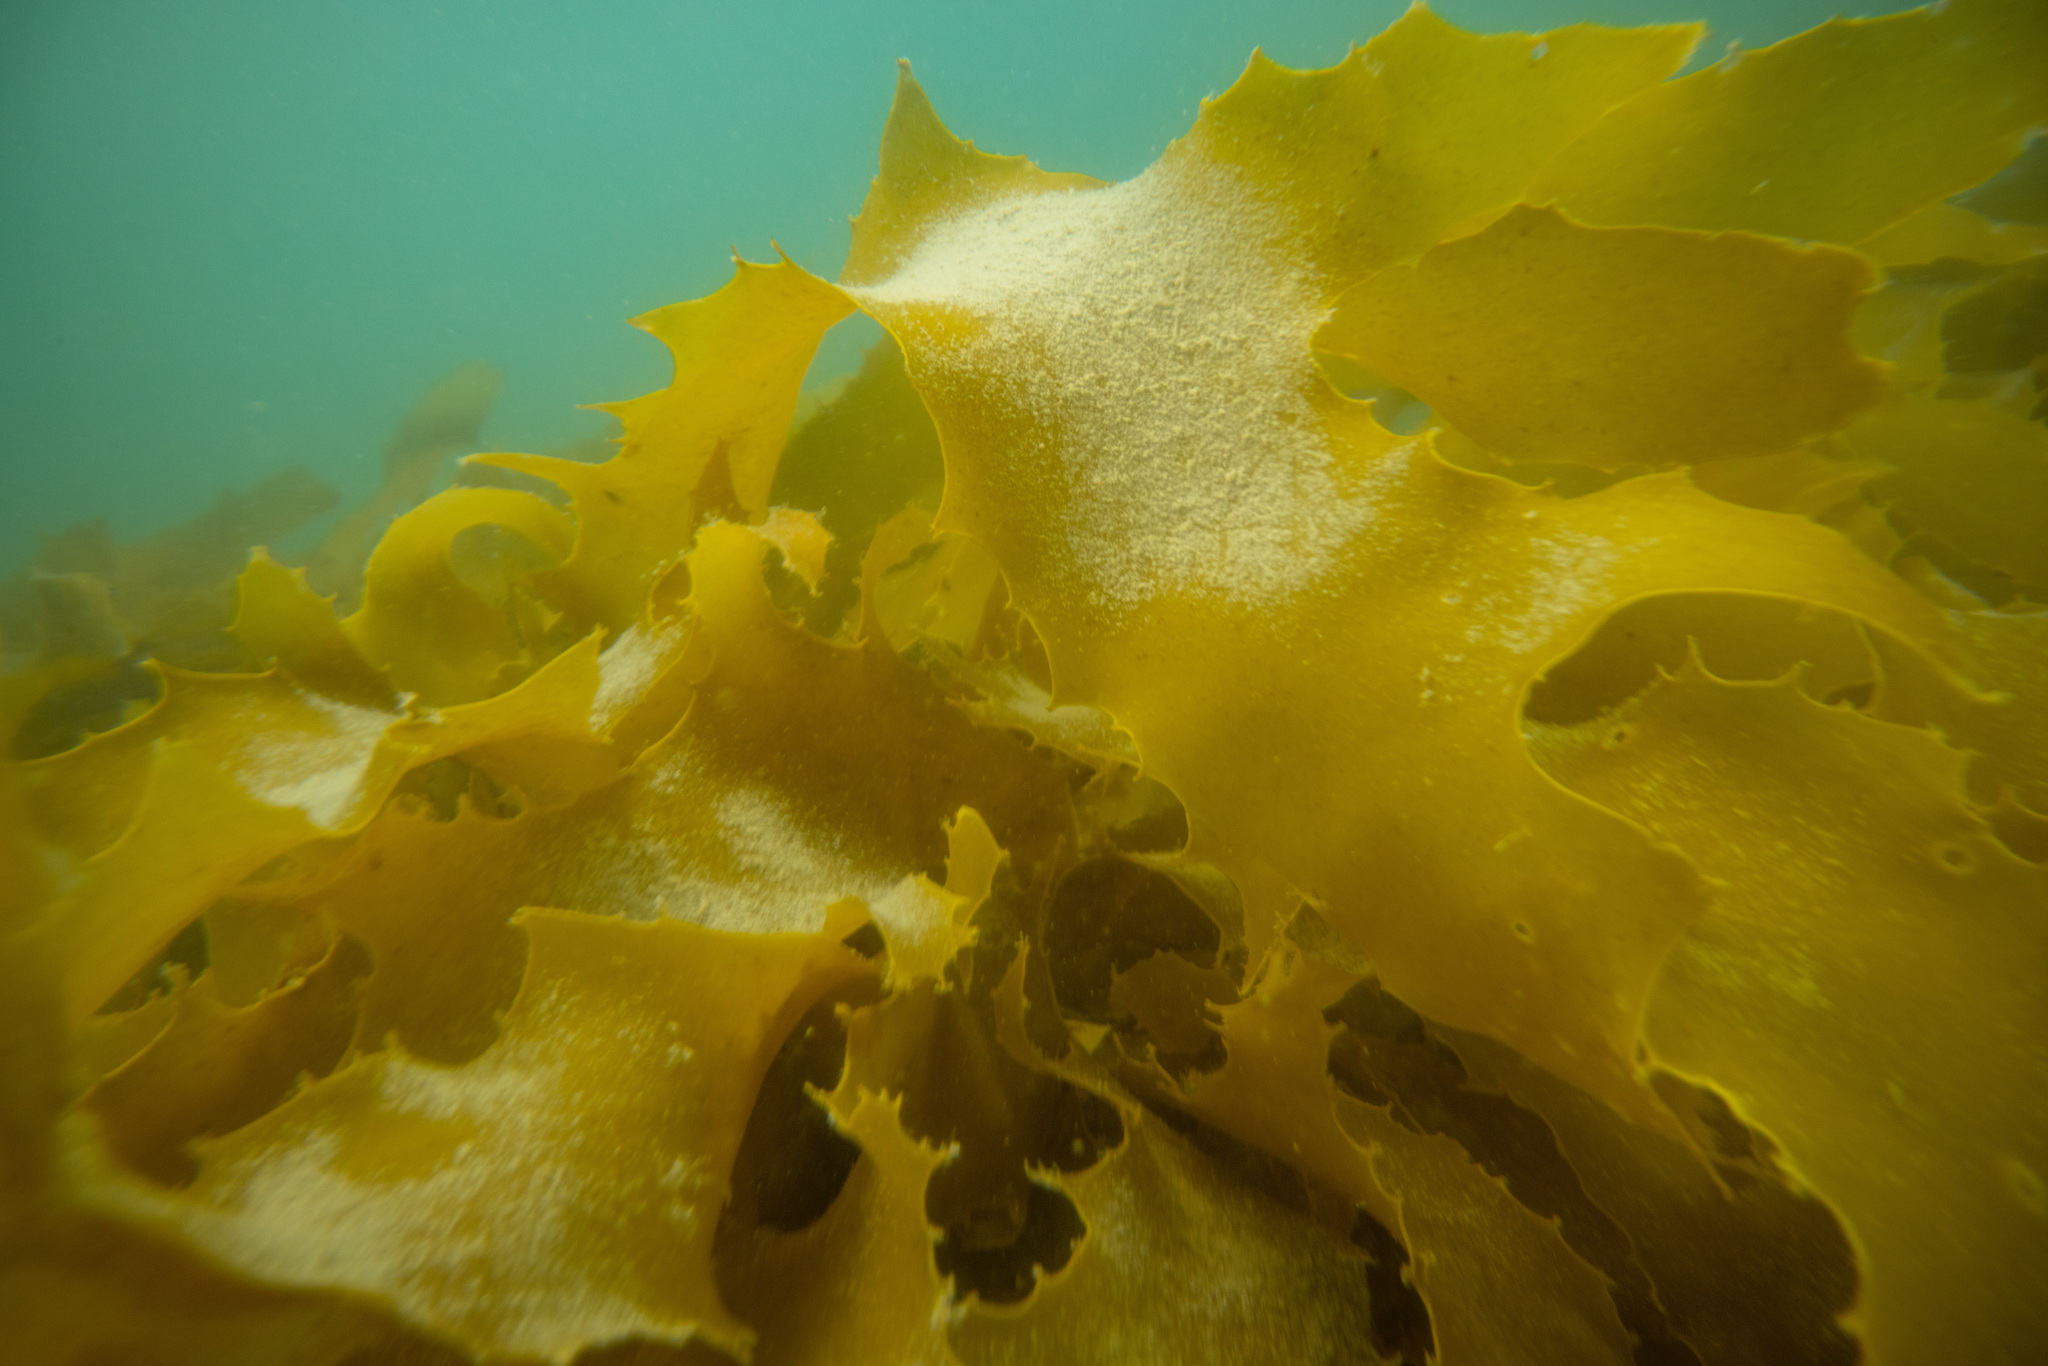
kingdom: Chromista
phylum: Ochrophyta
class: Phaeophyceae
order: Laminariales
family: Lessoniaceae
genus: Ecklonia
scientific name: Ecklonia radiata
